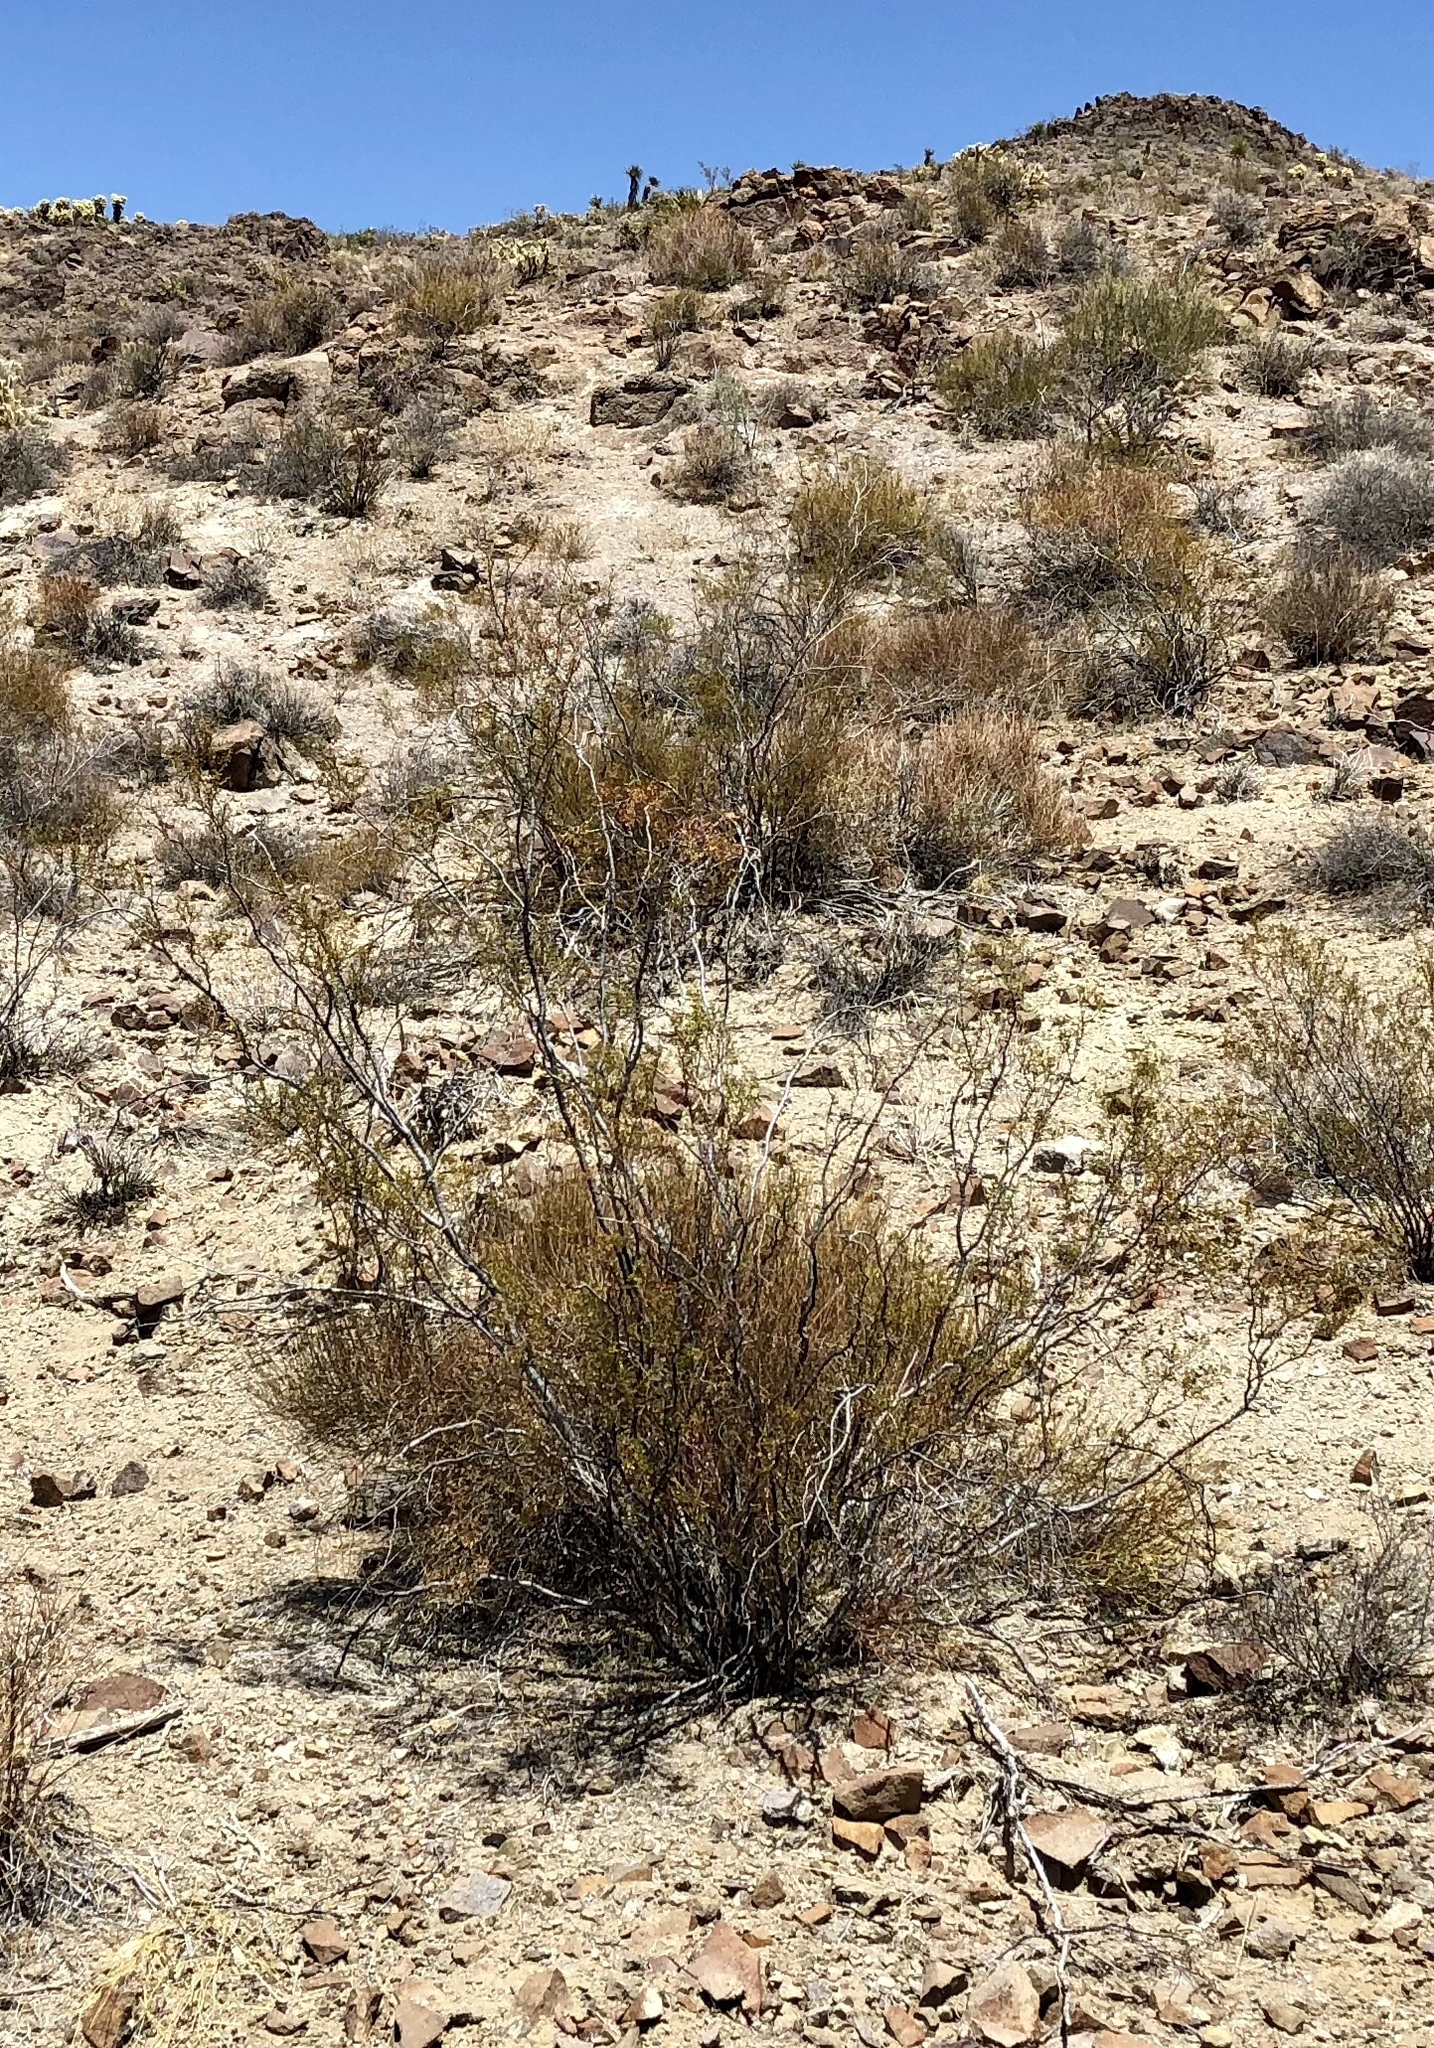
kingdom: Plantae
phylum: Tracheophyta
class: Magnoliopsida
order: Zygophyllales
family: Zygophyllaceae
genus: Larrea
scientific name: Larrea tridentata
